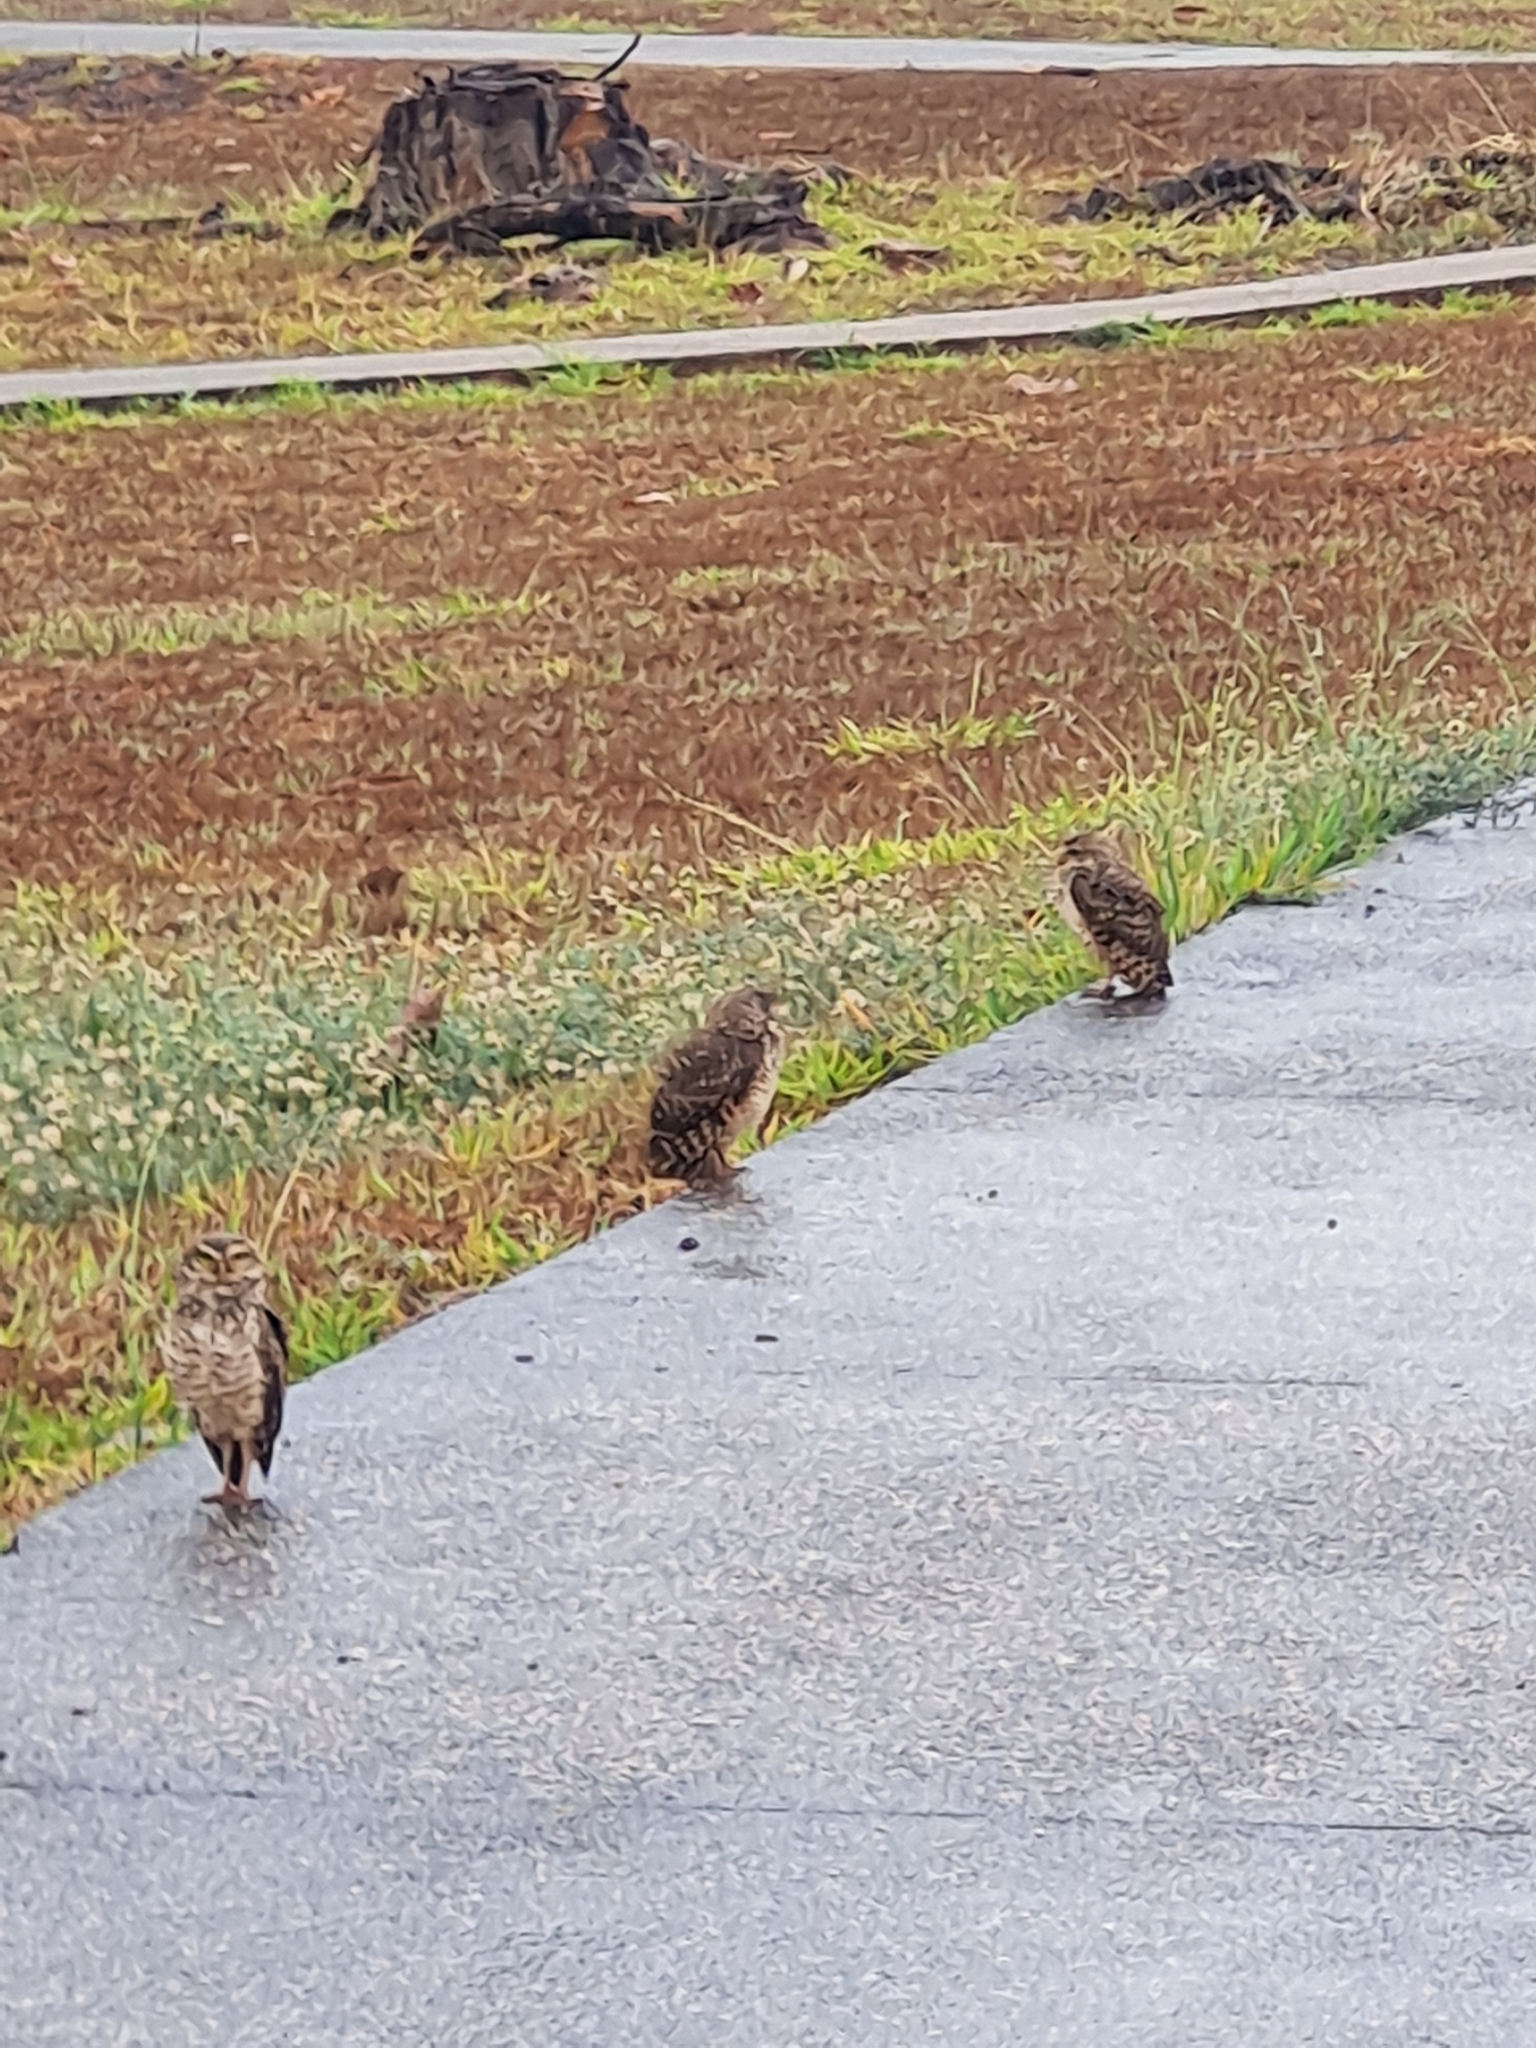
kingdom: Animalia
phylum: Chordata
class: Aves
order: Strigiformes
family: Strigidae
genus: Athene
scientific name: Athene cunicularia
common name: Burrowing owl
